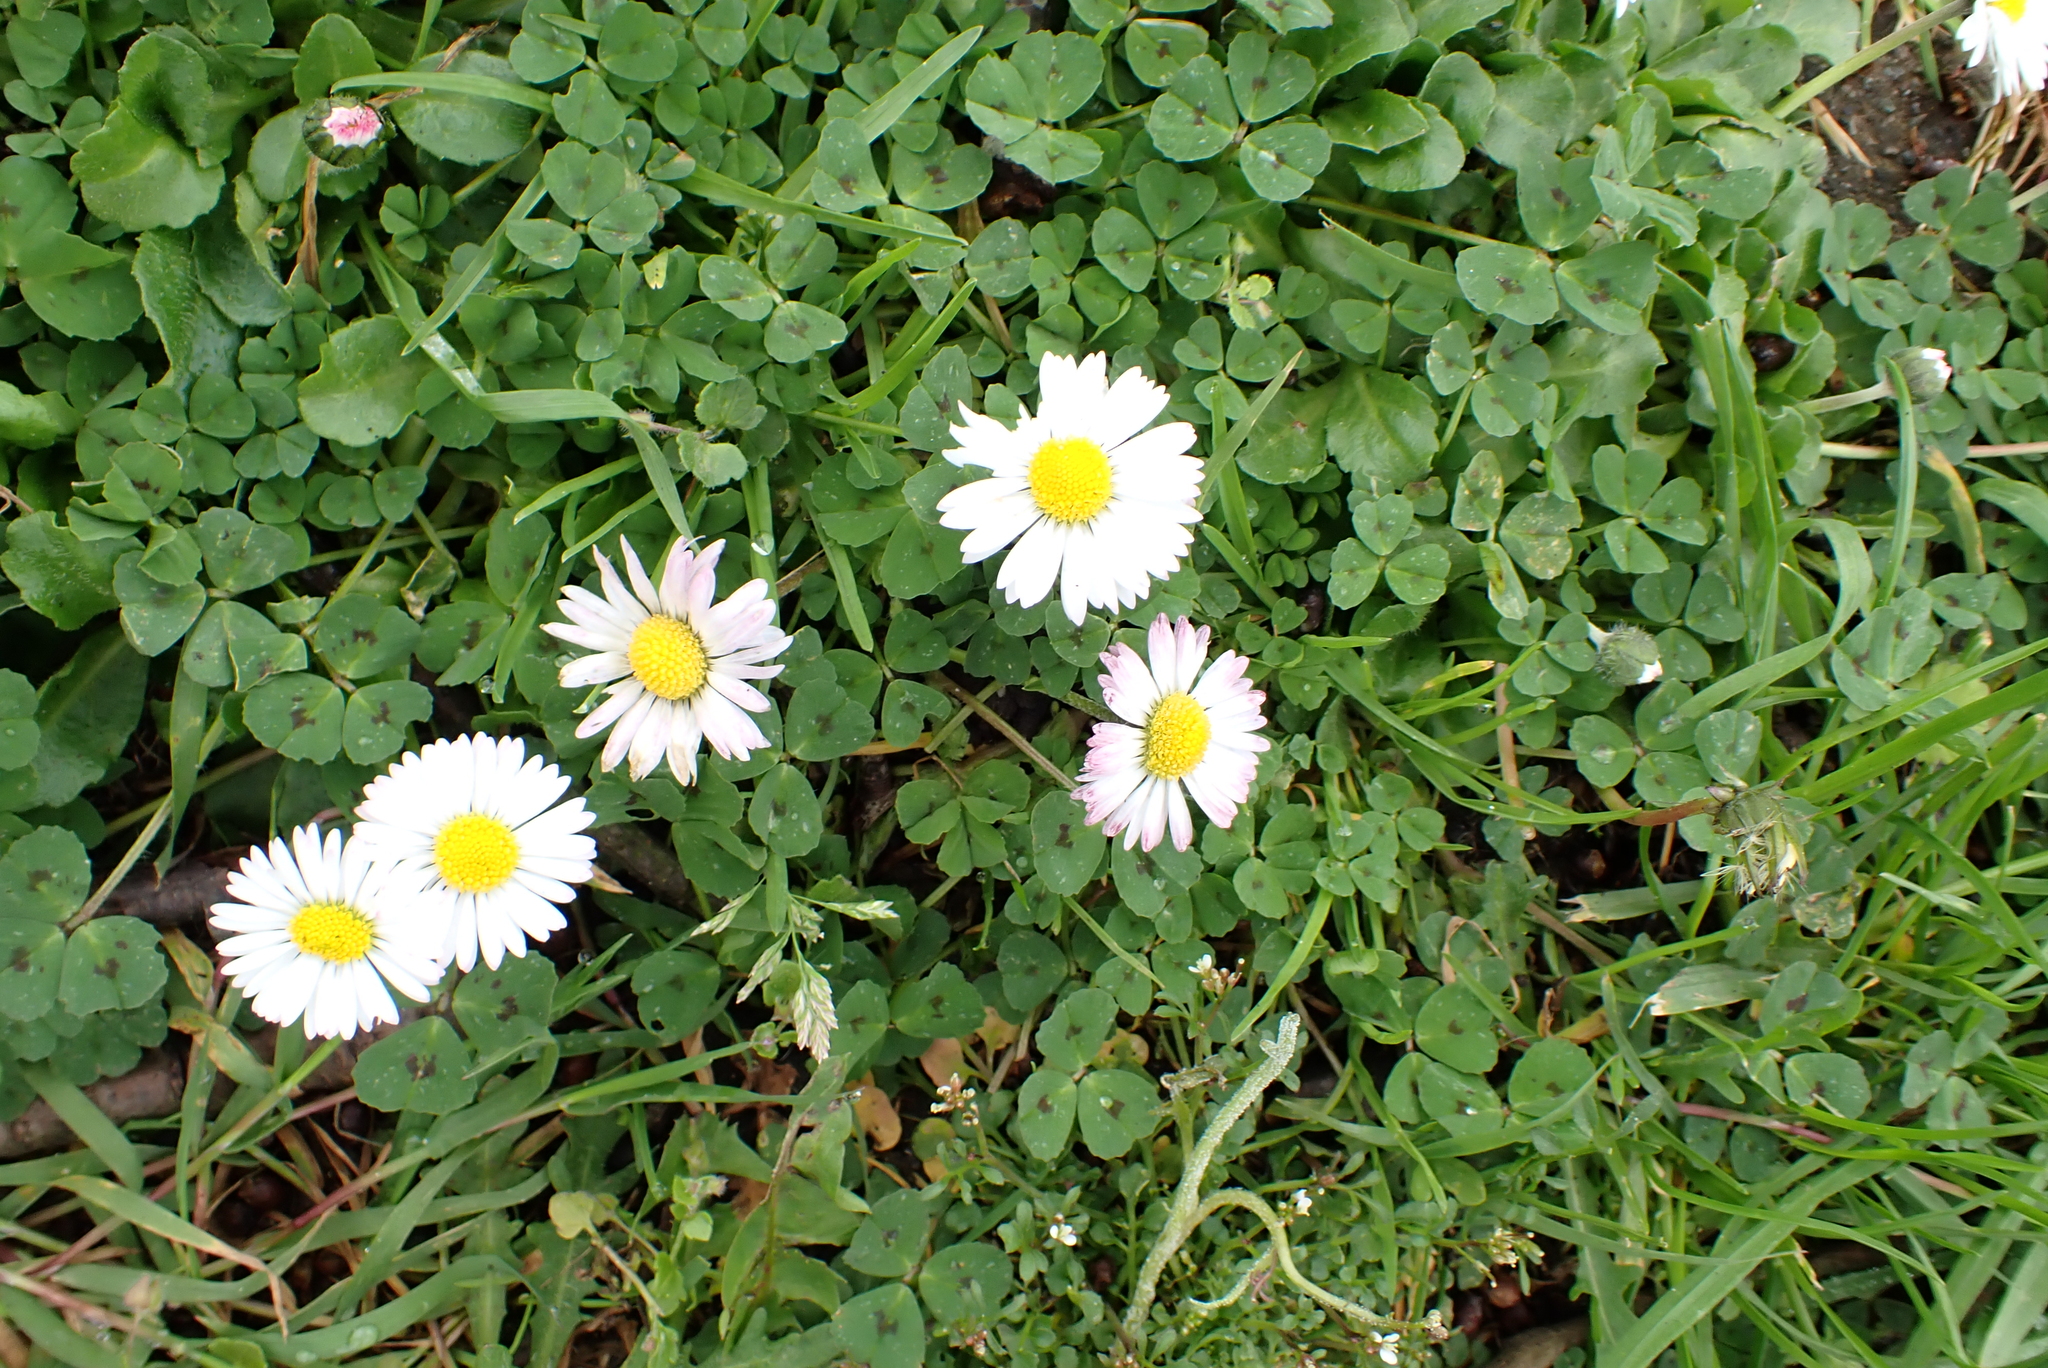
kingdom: Plantae
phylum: Tracheophyta
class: Magnoliopsida
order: Asterales
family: Asteraceae
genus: Bellis
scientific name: Bellis perennis
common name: Lawndaisy
